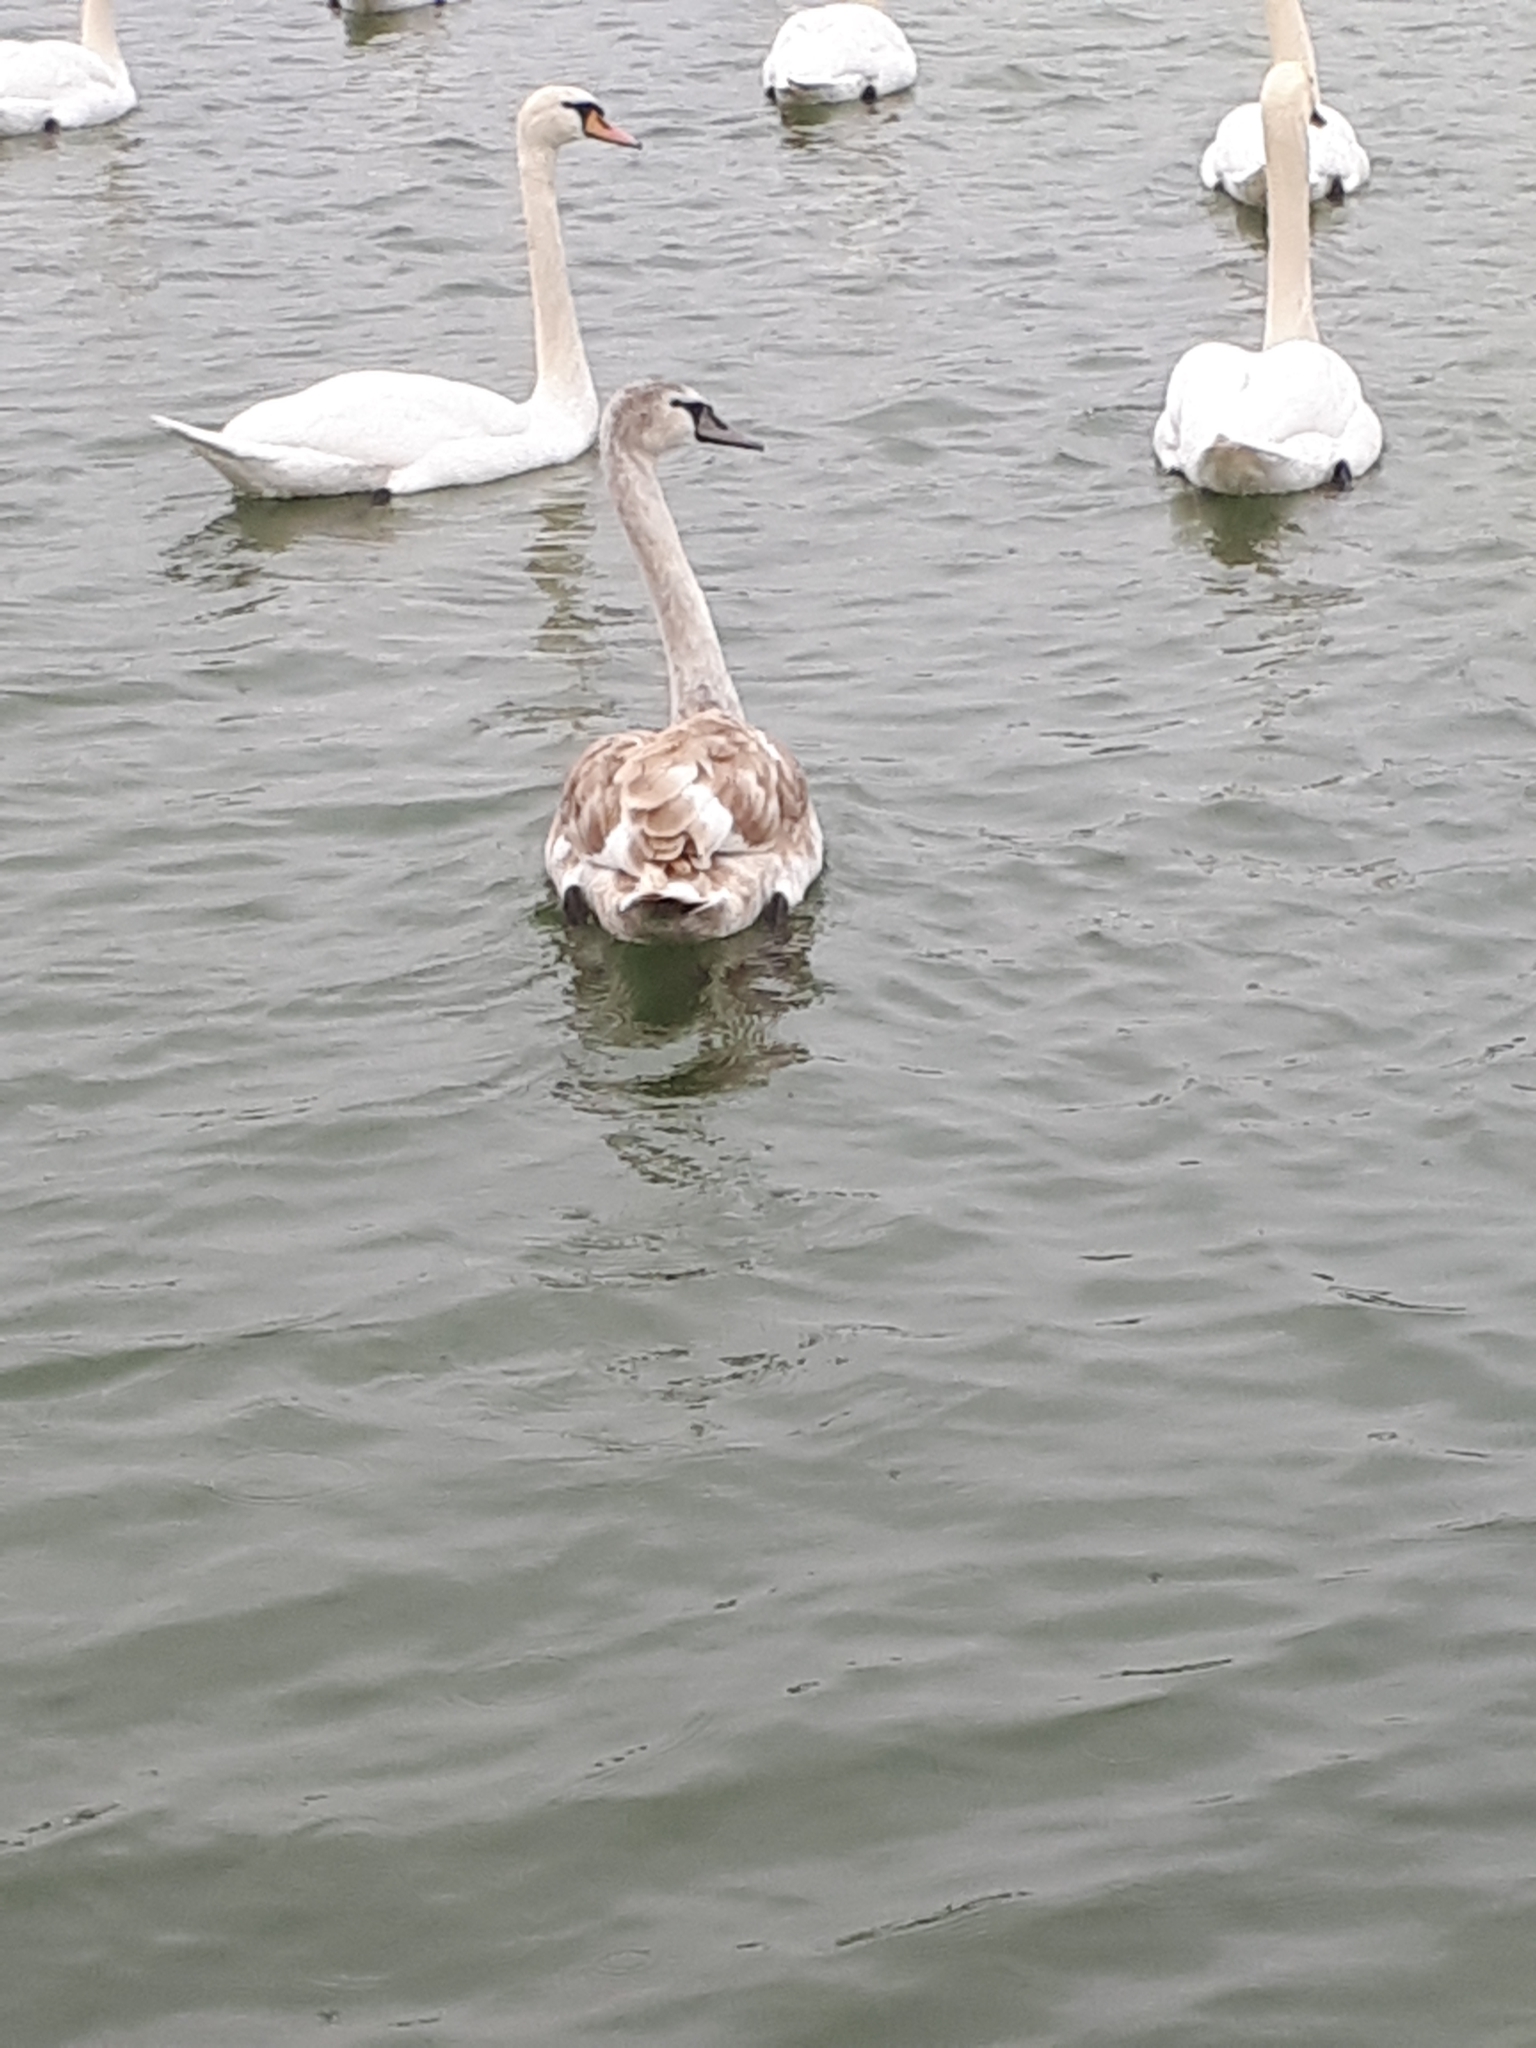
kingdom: Animalia
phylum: Chordata
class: Aves
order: Anseriformes
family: Anatidae
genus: Cygnus
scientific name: Cygnus olor
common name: Mute swan
